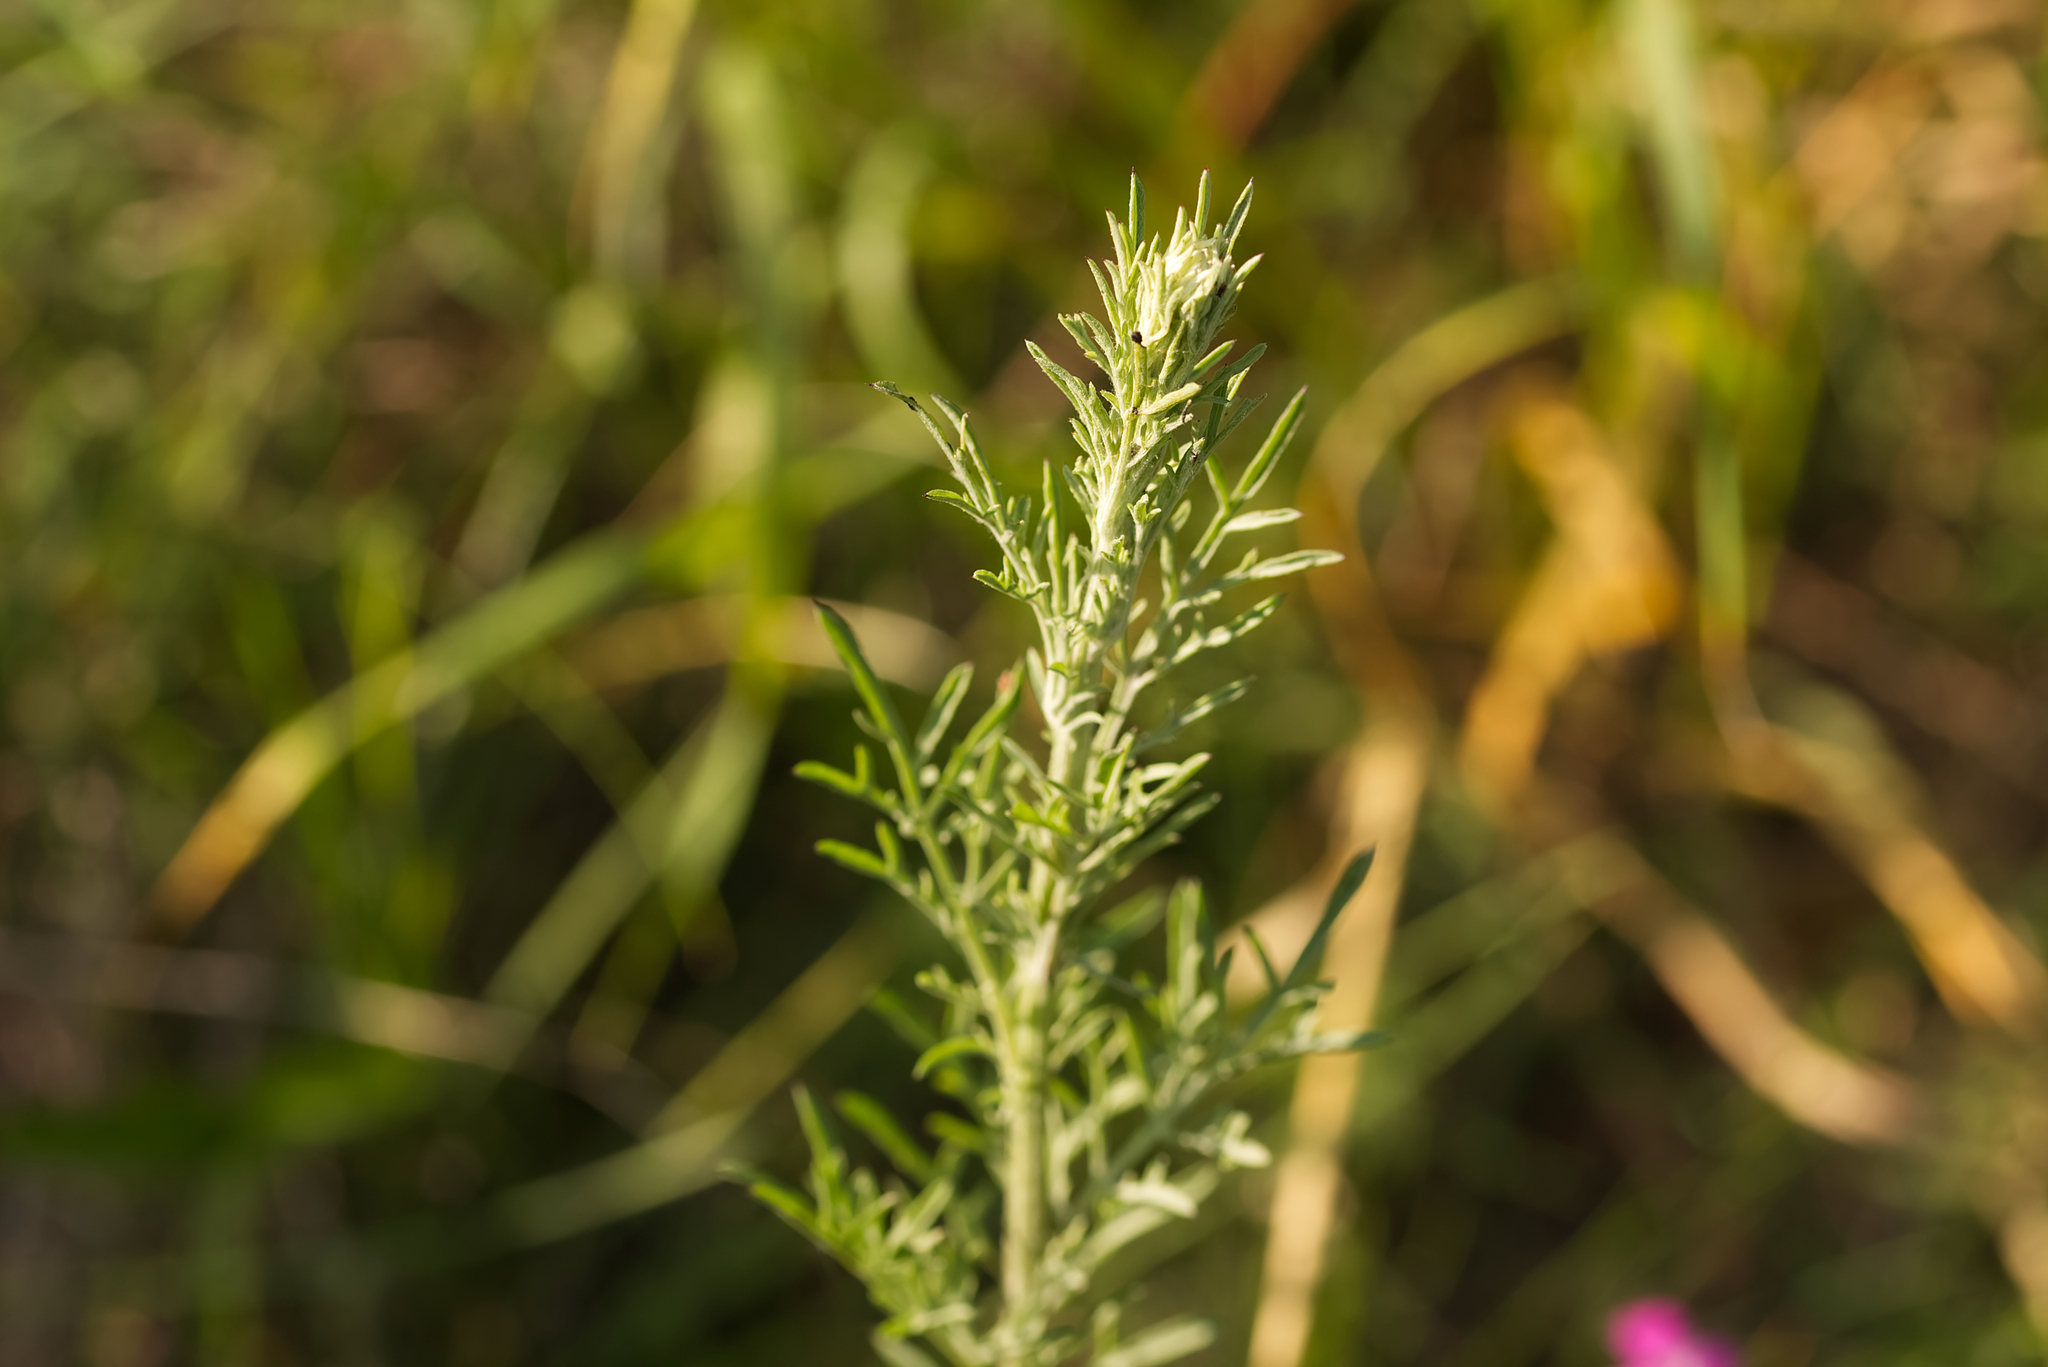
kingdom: Plantae
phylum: Tracheophyta
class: Magnoliopsida
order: Asterales
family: Asteraceae
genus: Centaurea
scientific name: Centaurea stoebe
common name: Spotted knapweed
